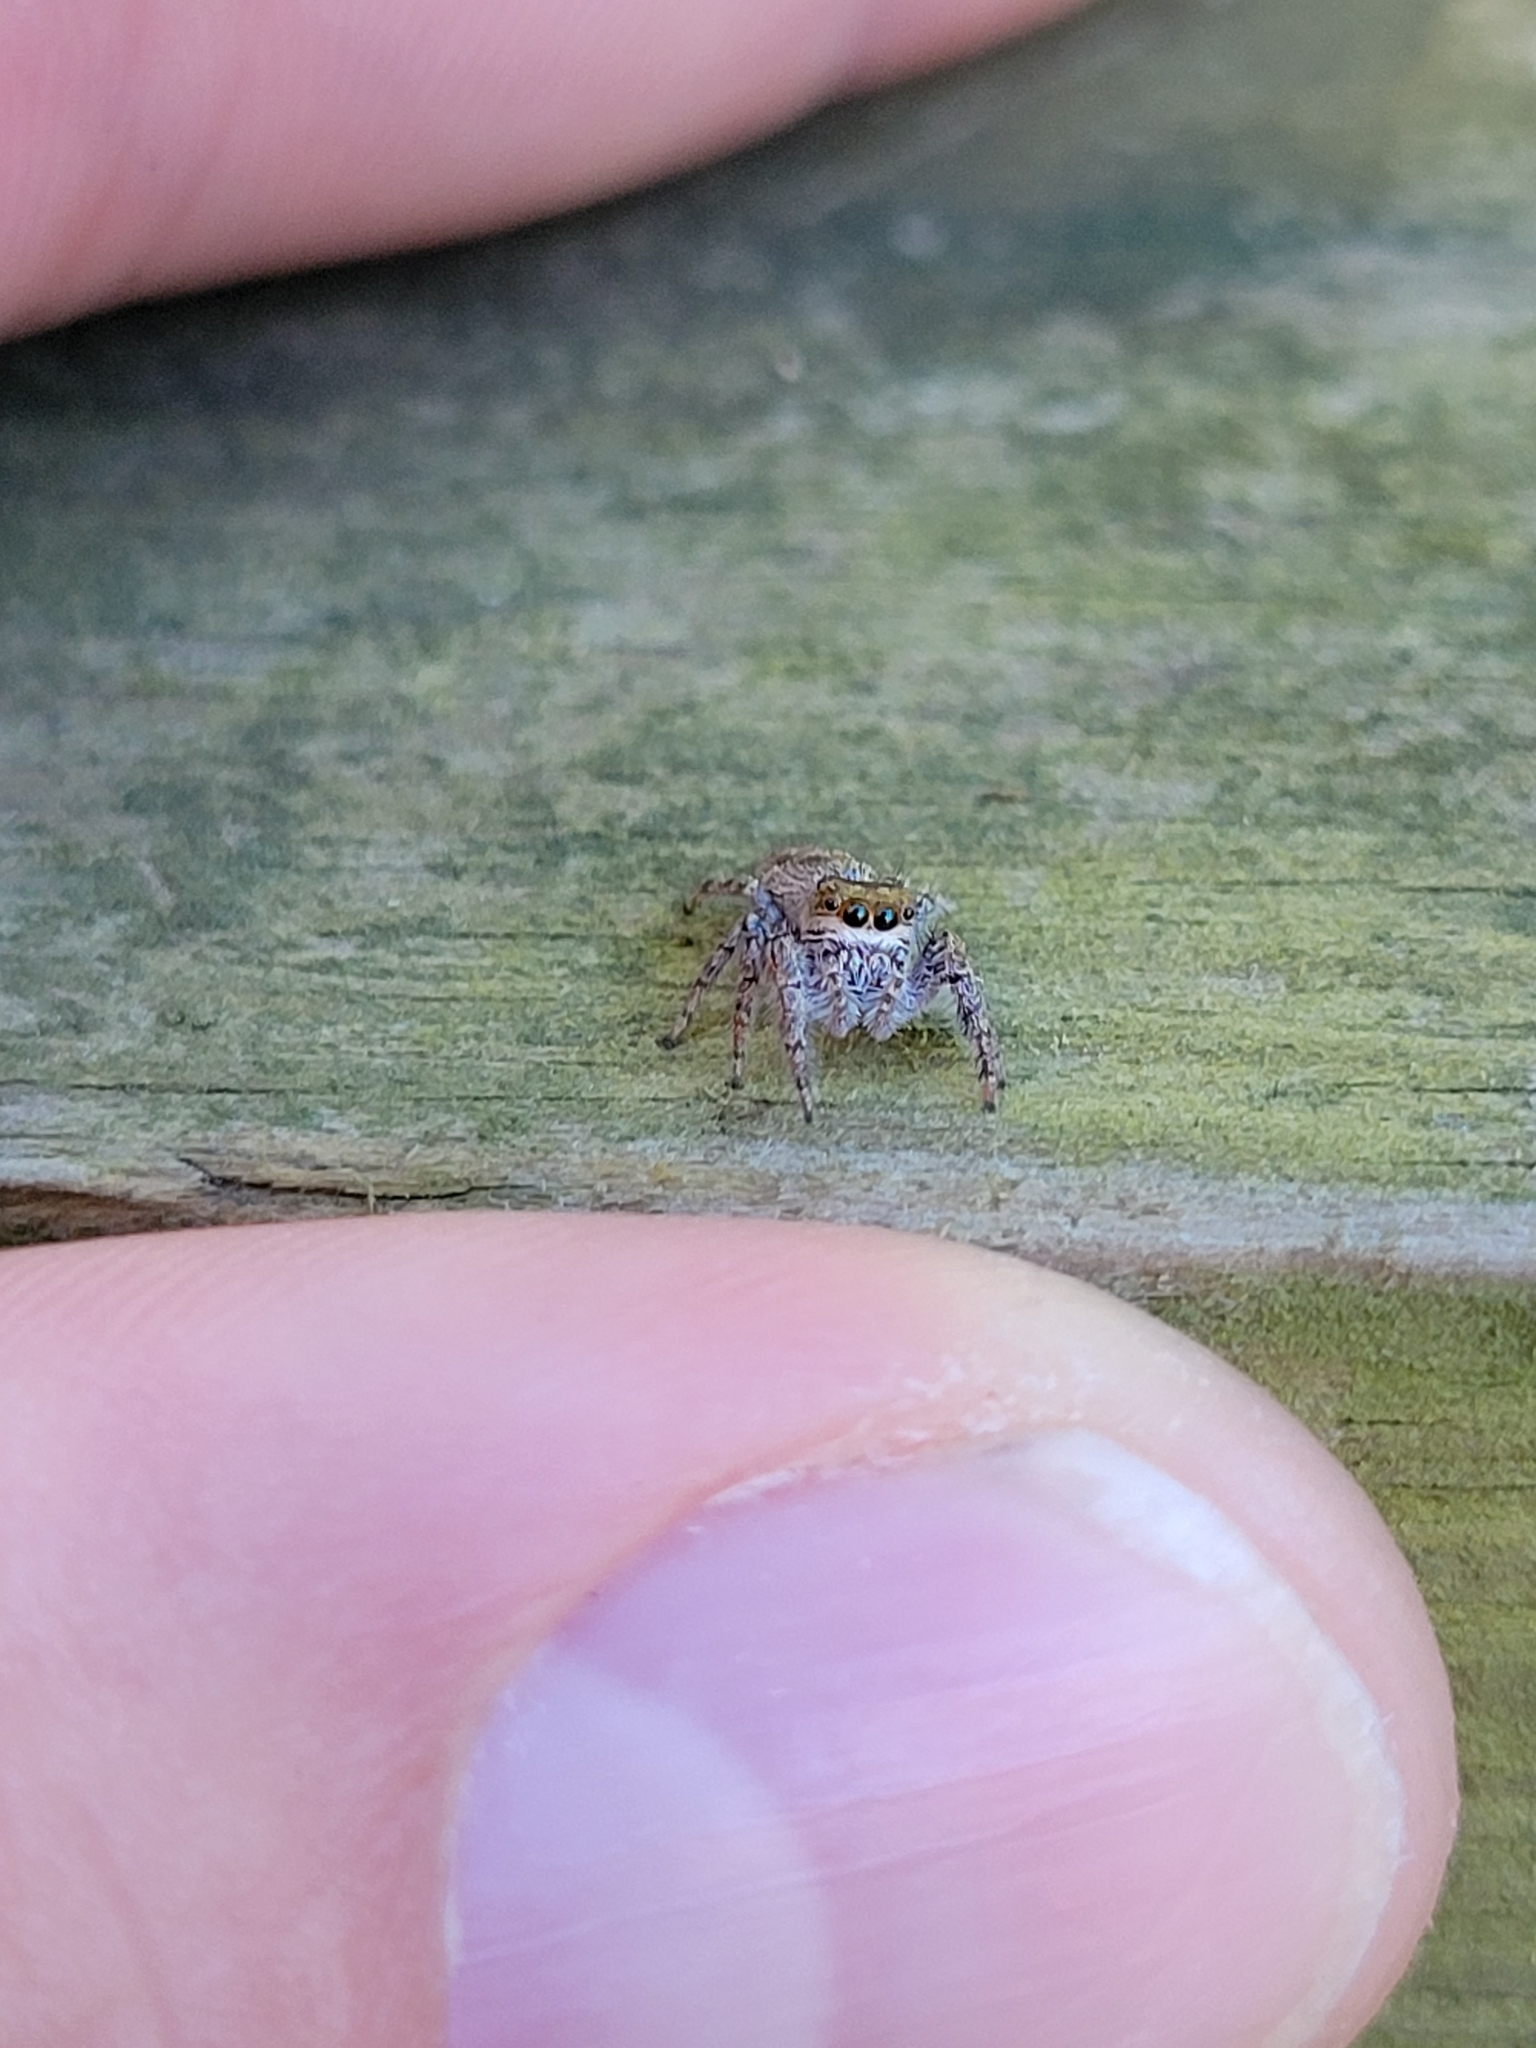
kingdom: Animalia
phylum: Arthropoda
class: Arachnida
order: Araneae
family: Salticidae
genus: Eris
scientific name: Eris militaris
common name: Bronze jumper
